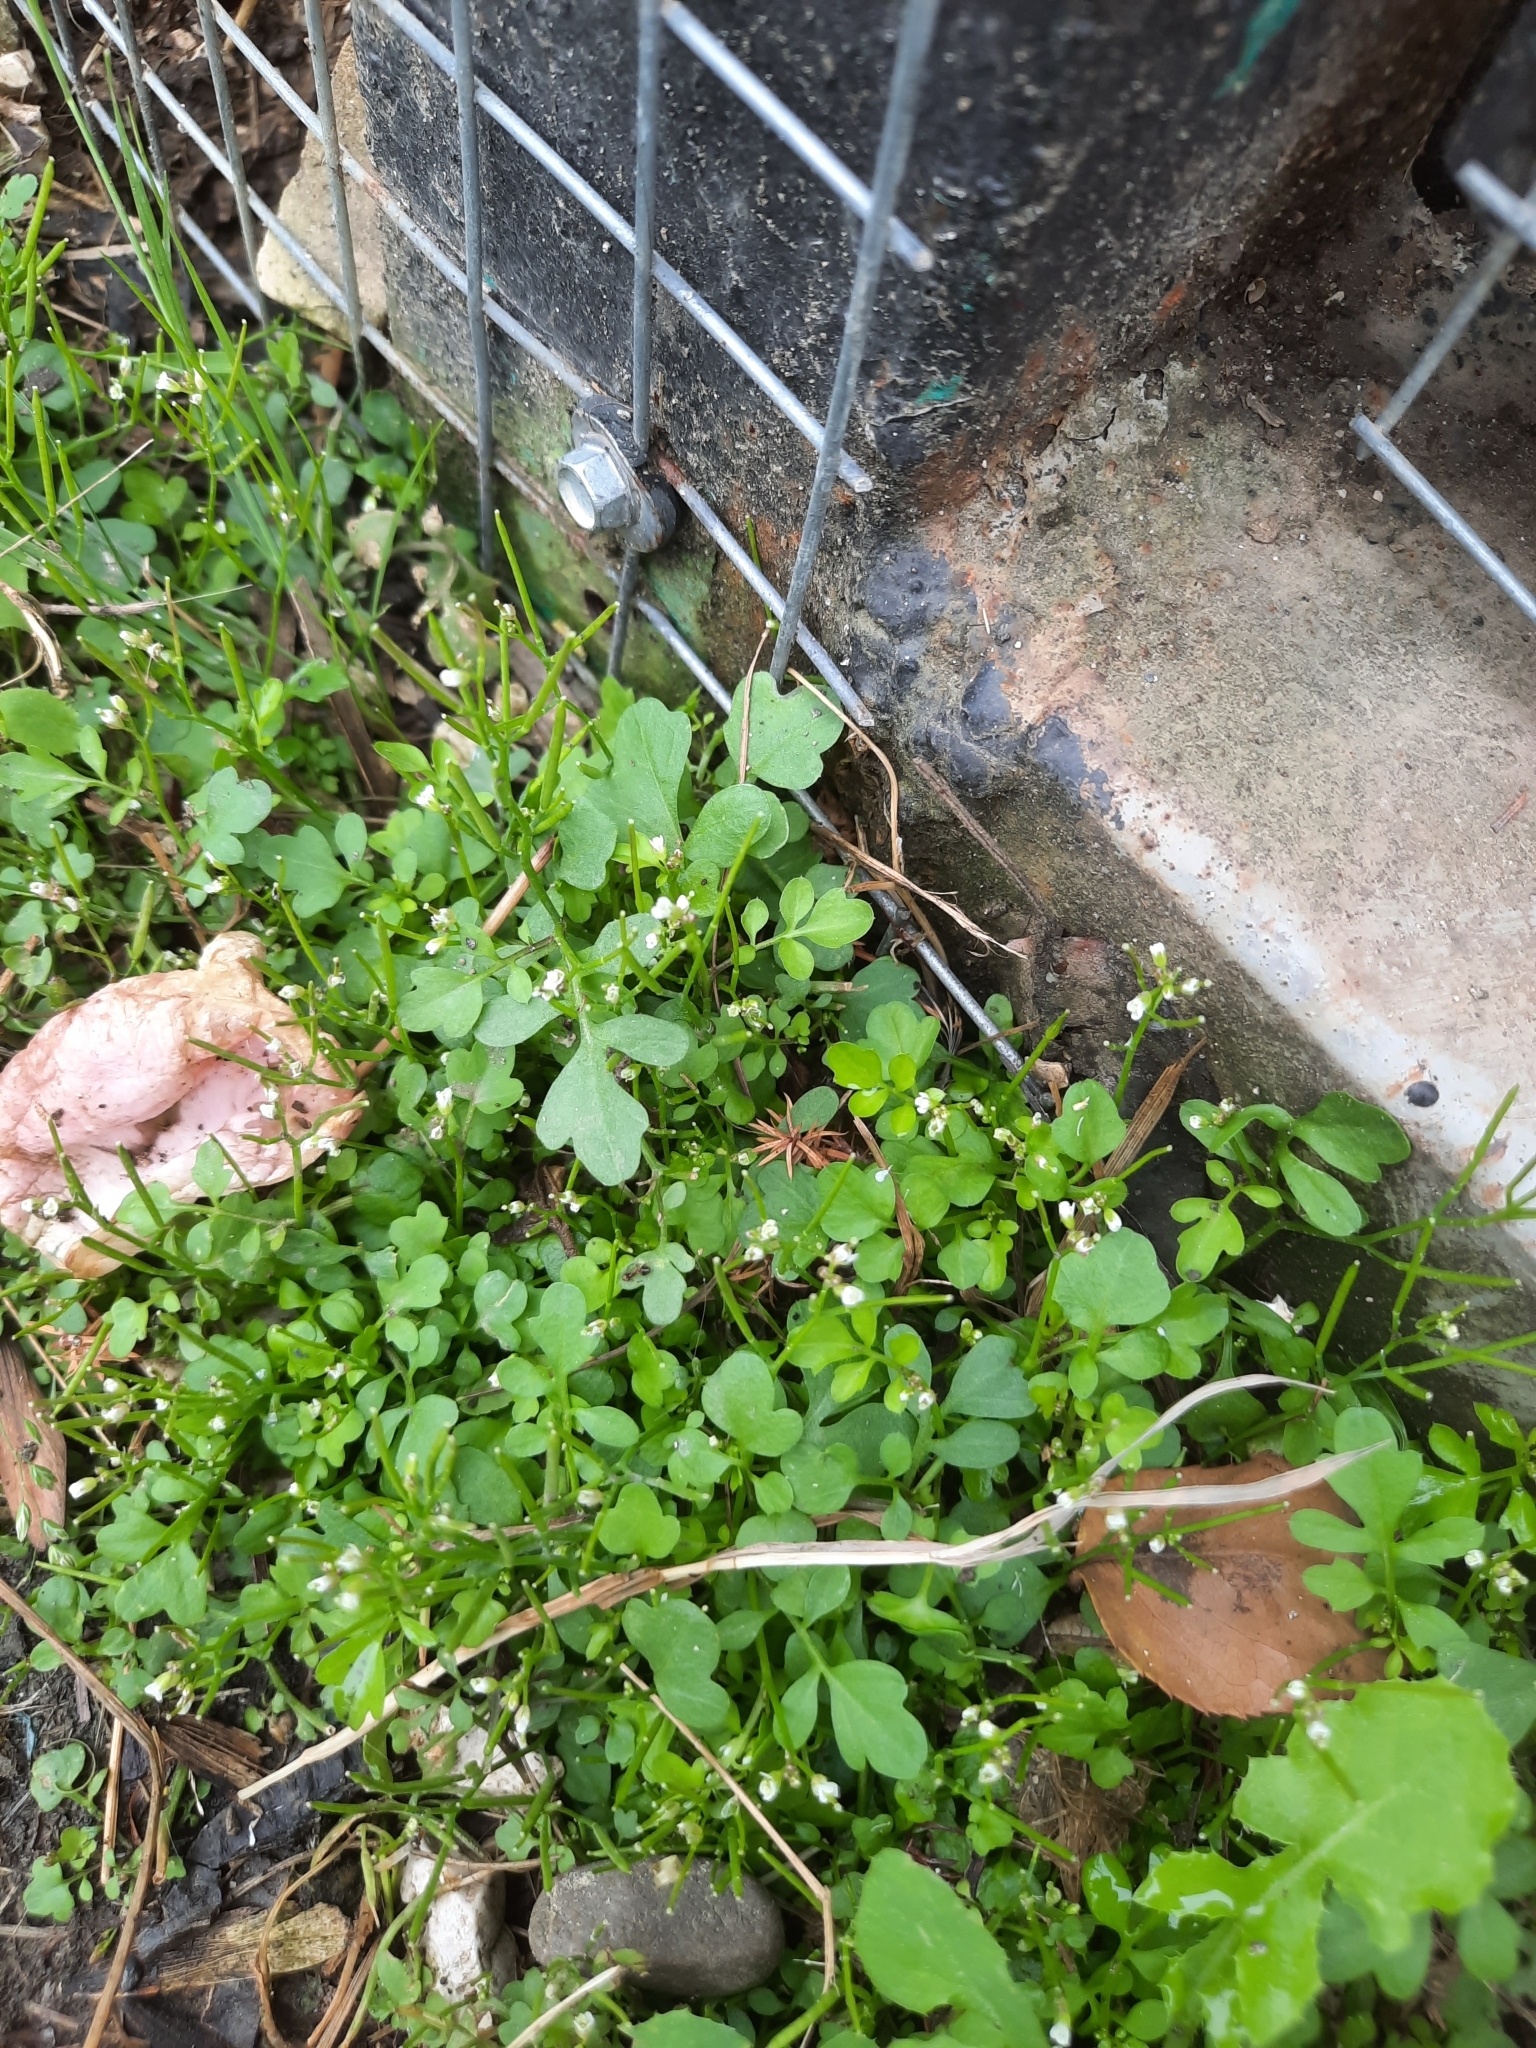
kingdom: Plantae
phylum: Tracheophyta
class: Magnoliopsida
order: Brassicales
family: Brassicaceae
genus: Cardamine
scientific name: Cardamine hirsuta
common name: Hairy bittercress
